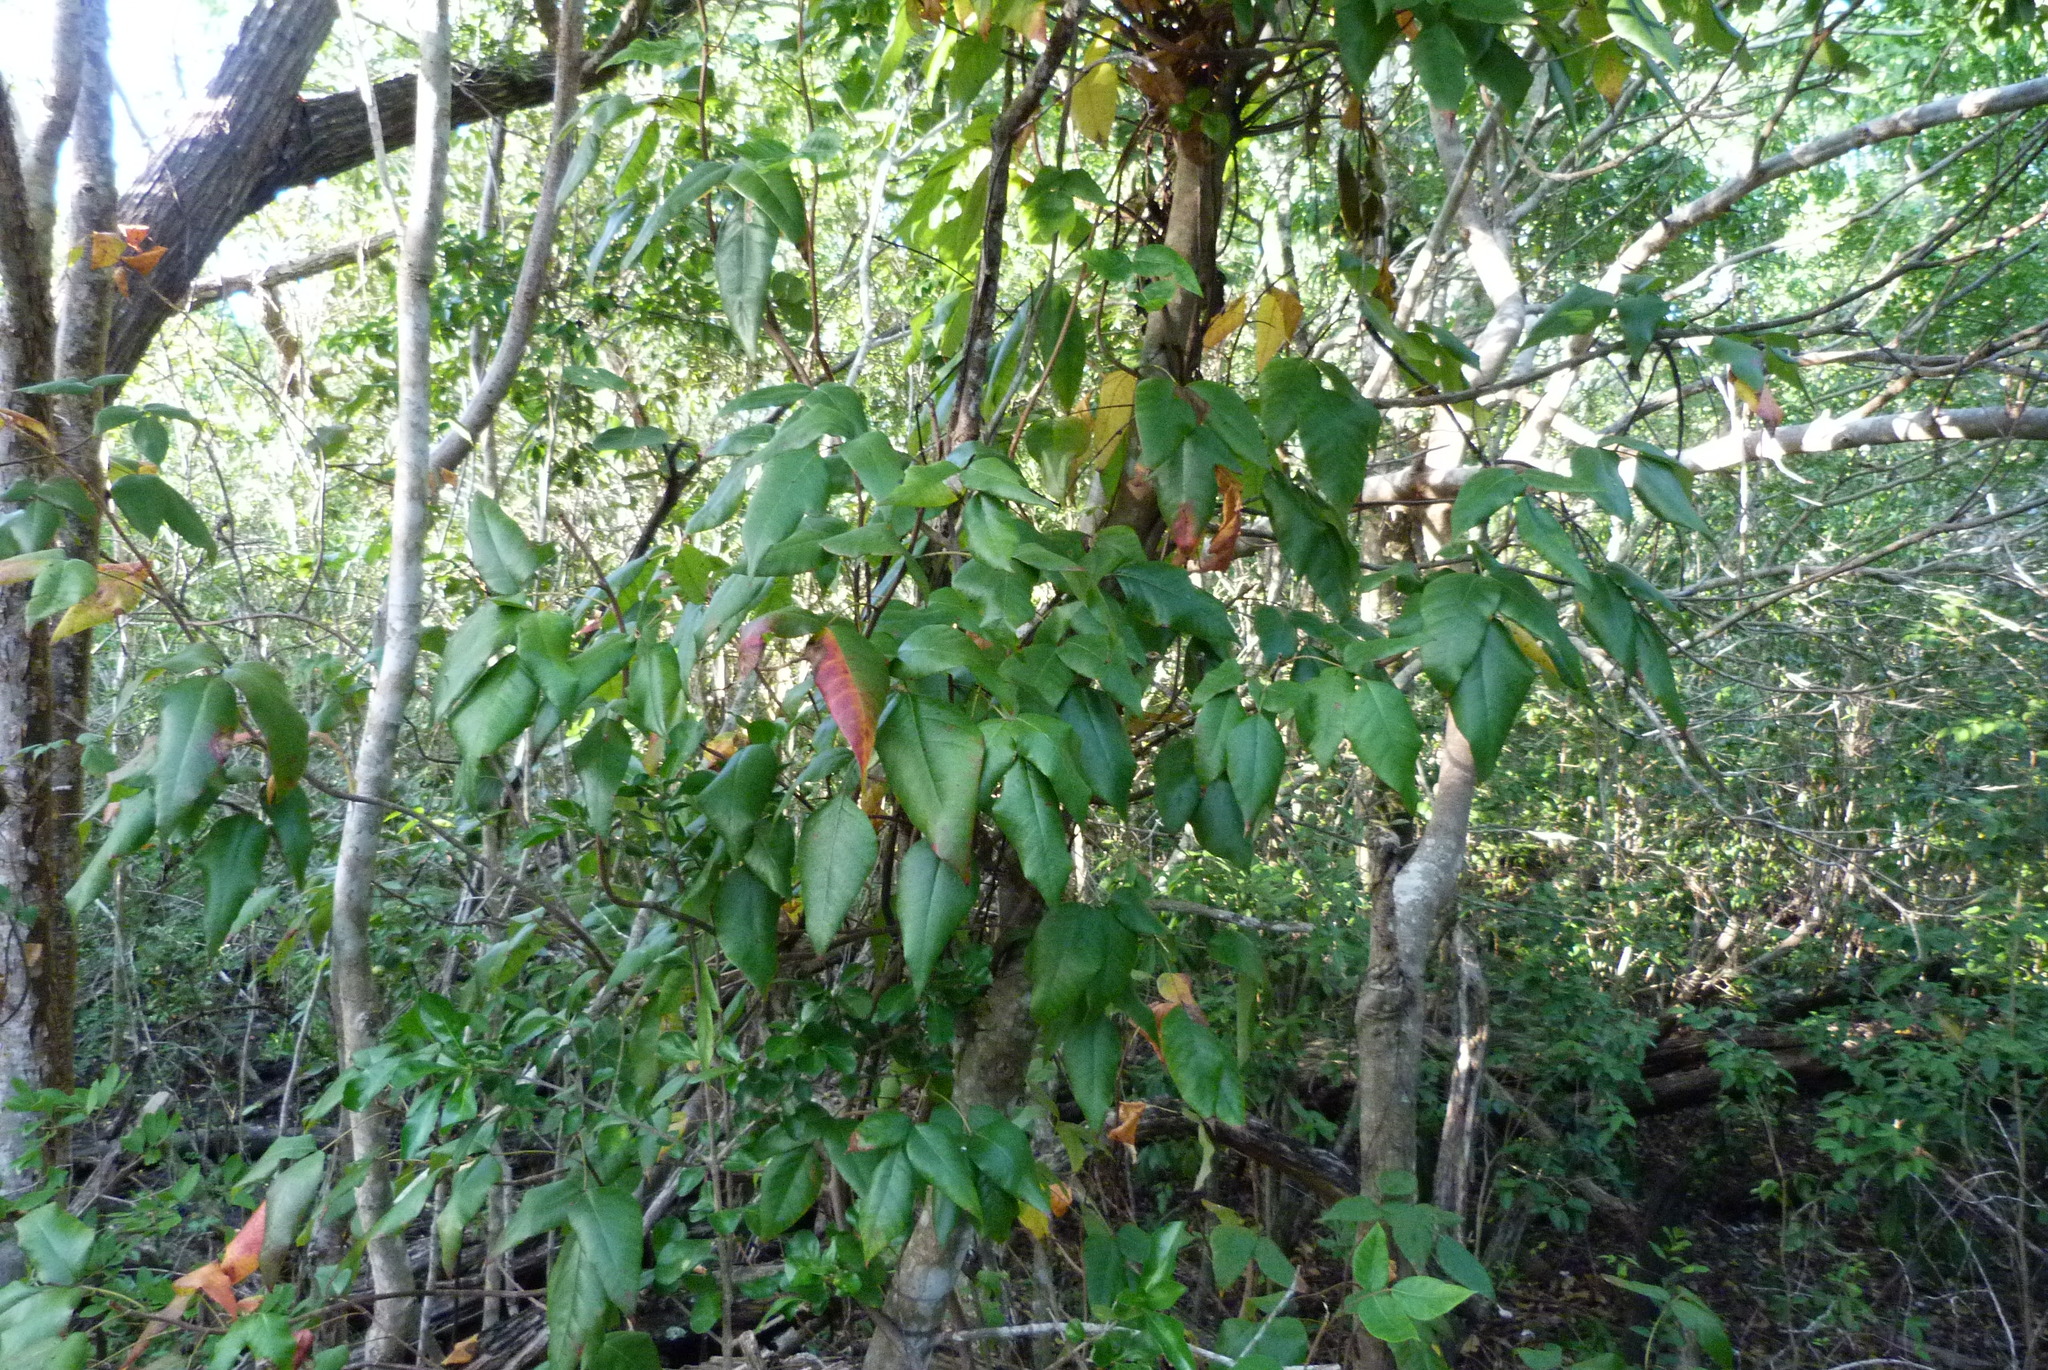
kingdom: Plantae
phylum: Tracheophyta
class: Magnoliopsida
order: Sapindales
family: Anacardiaceae
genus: Toxicodendron
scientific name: Toxicodendron radicans
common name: Poison ivy
